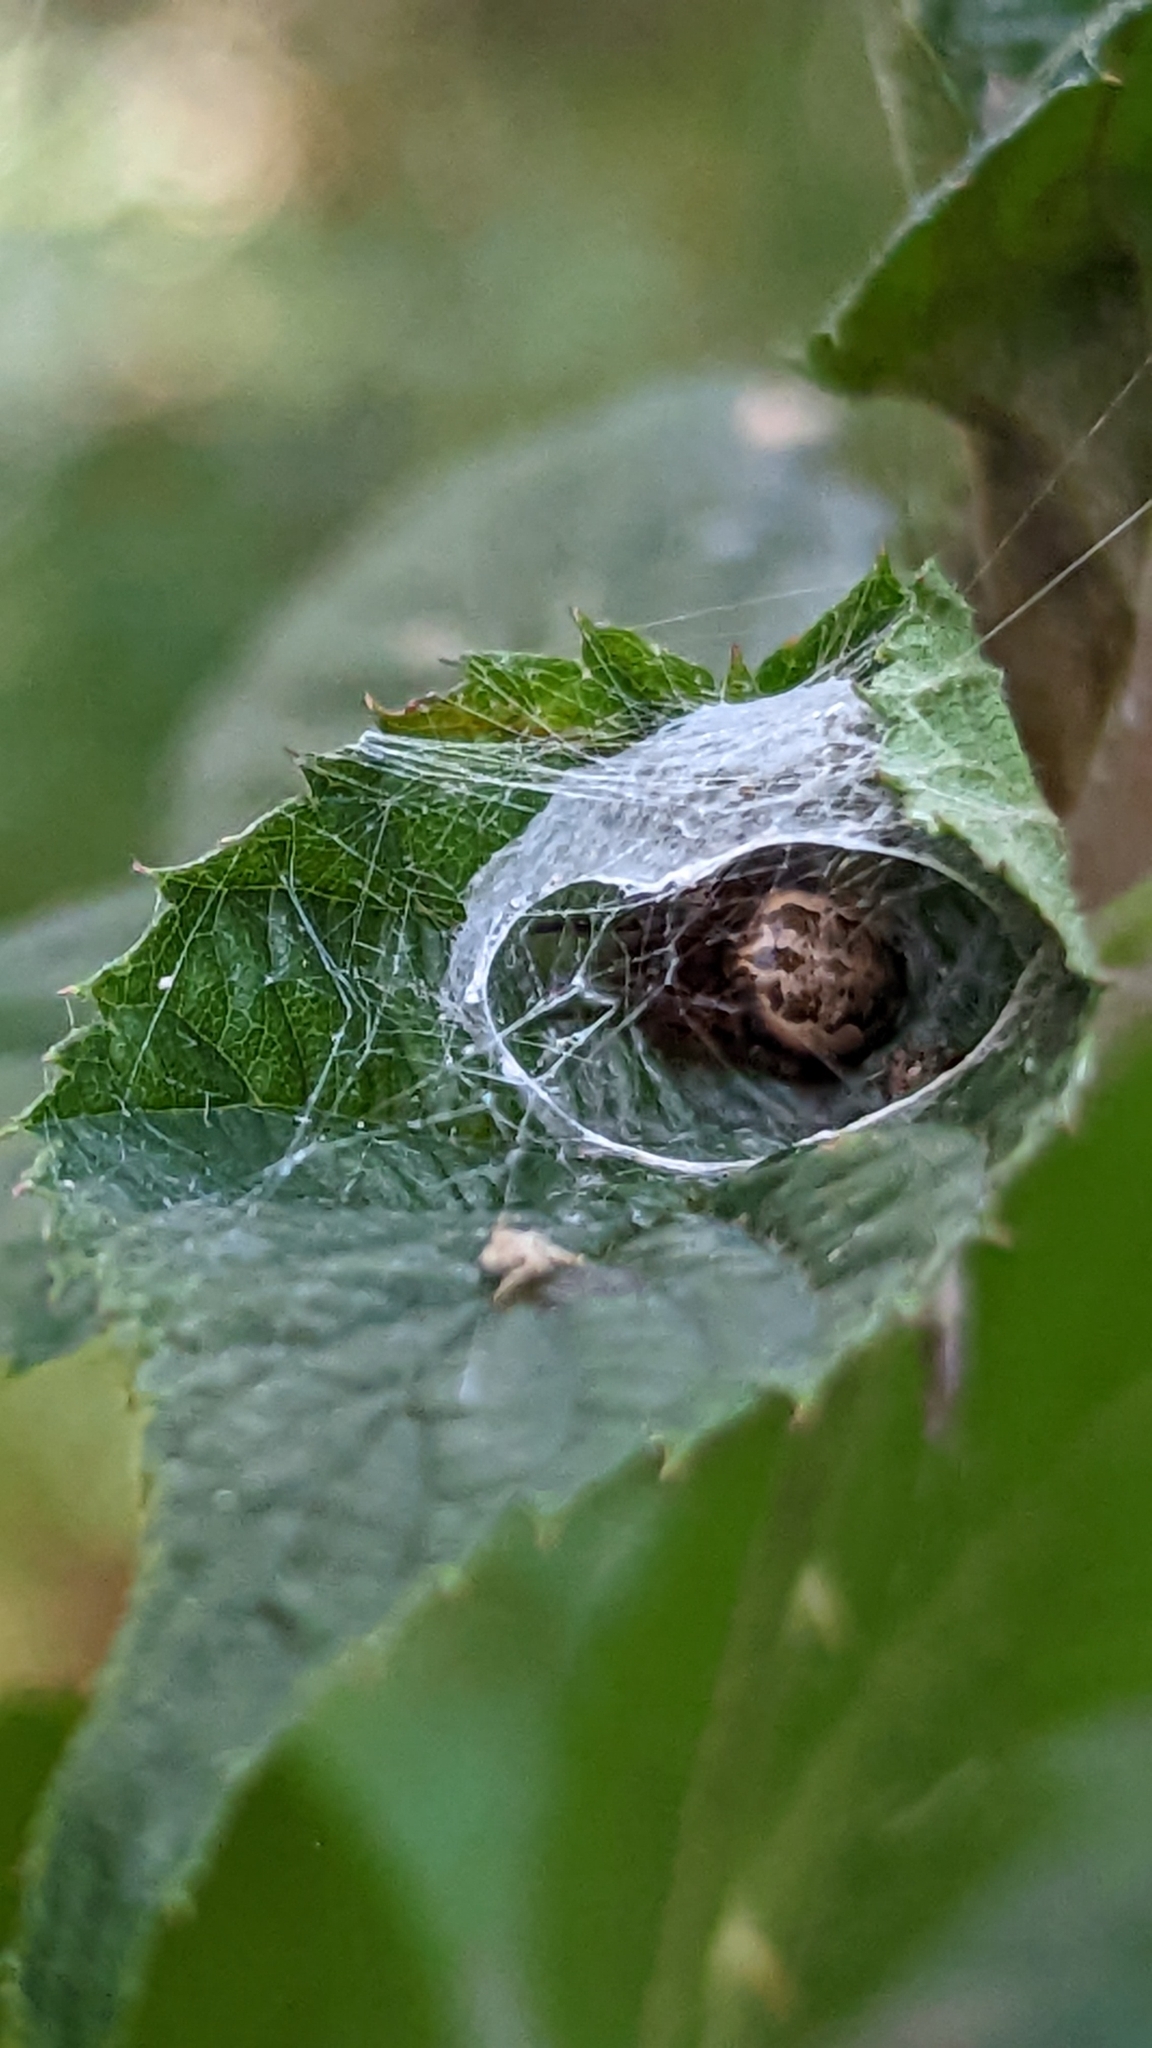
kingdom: Animalia
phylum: Arthropoda
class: Arachnida
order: Araneae
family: Araneidae
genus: Larinioides
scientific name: Larinioides cornutus
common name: Furrow orbweaver
